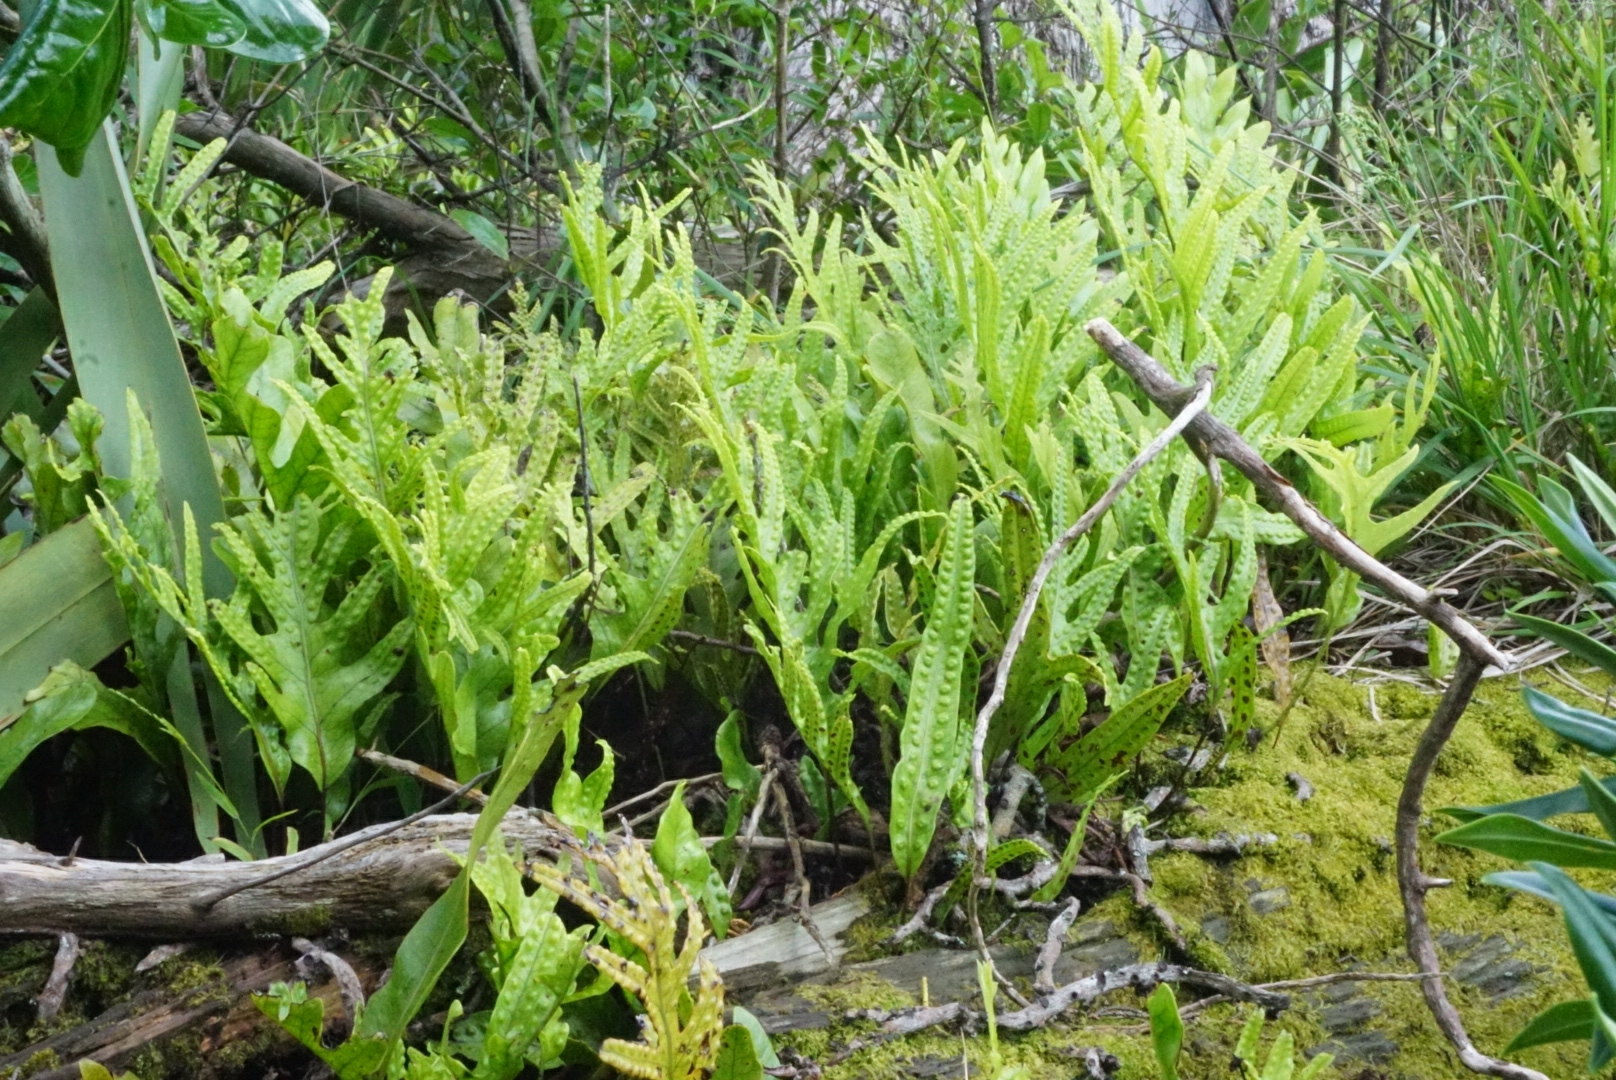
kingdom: Plantae
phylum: Tracheophyta
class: Polypodiopsida
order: Polypodiales
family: Polypodiaceae
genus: Lecanopteris
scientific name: Lecanopteris pustulata
